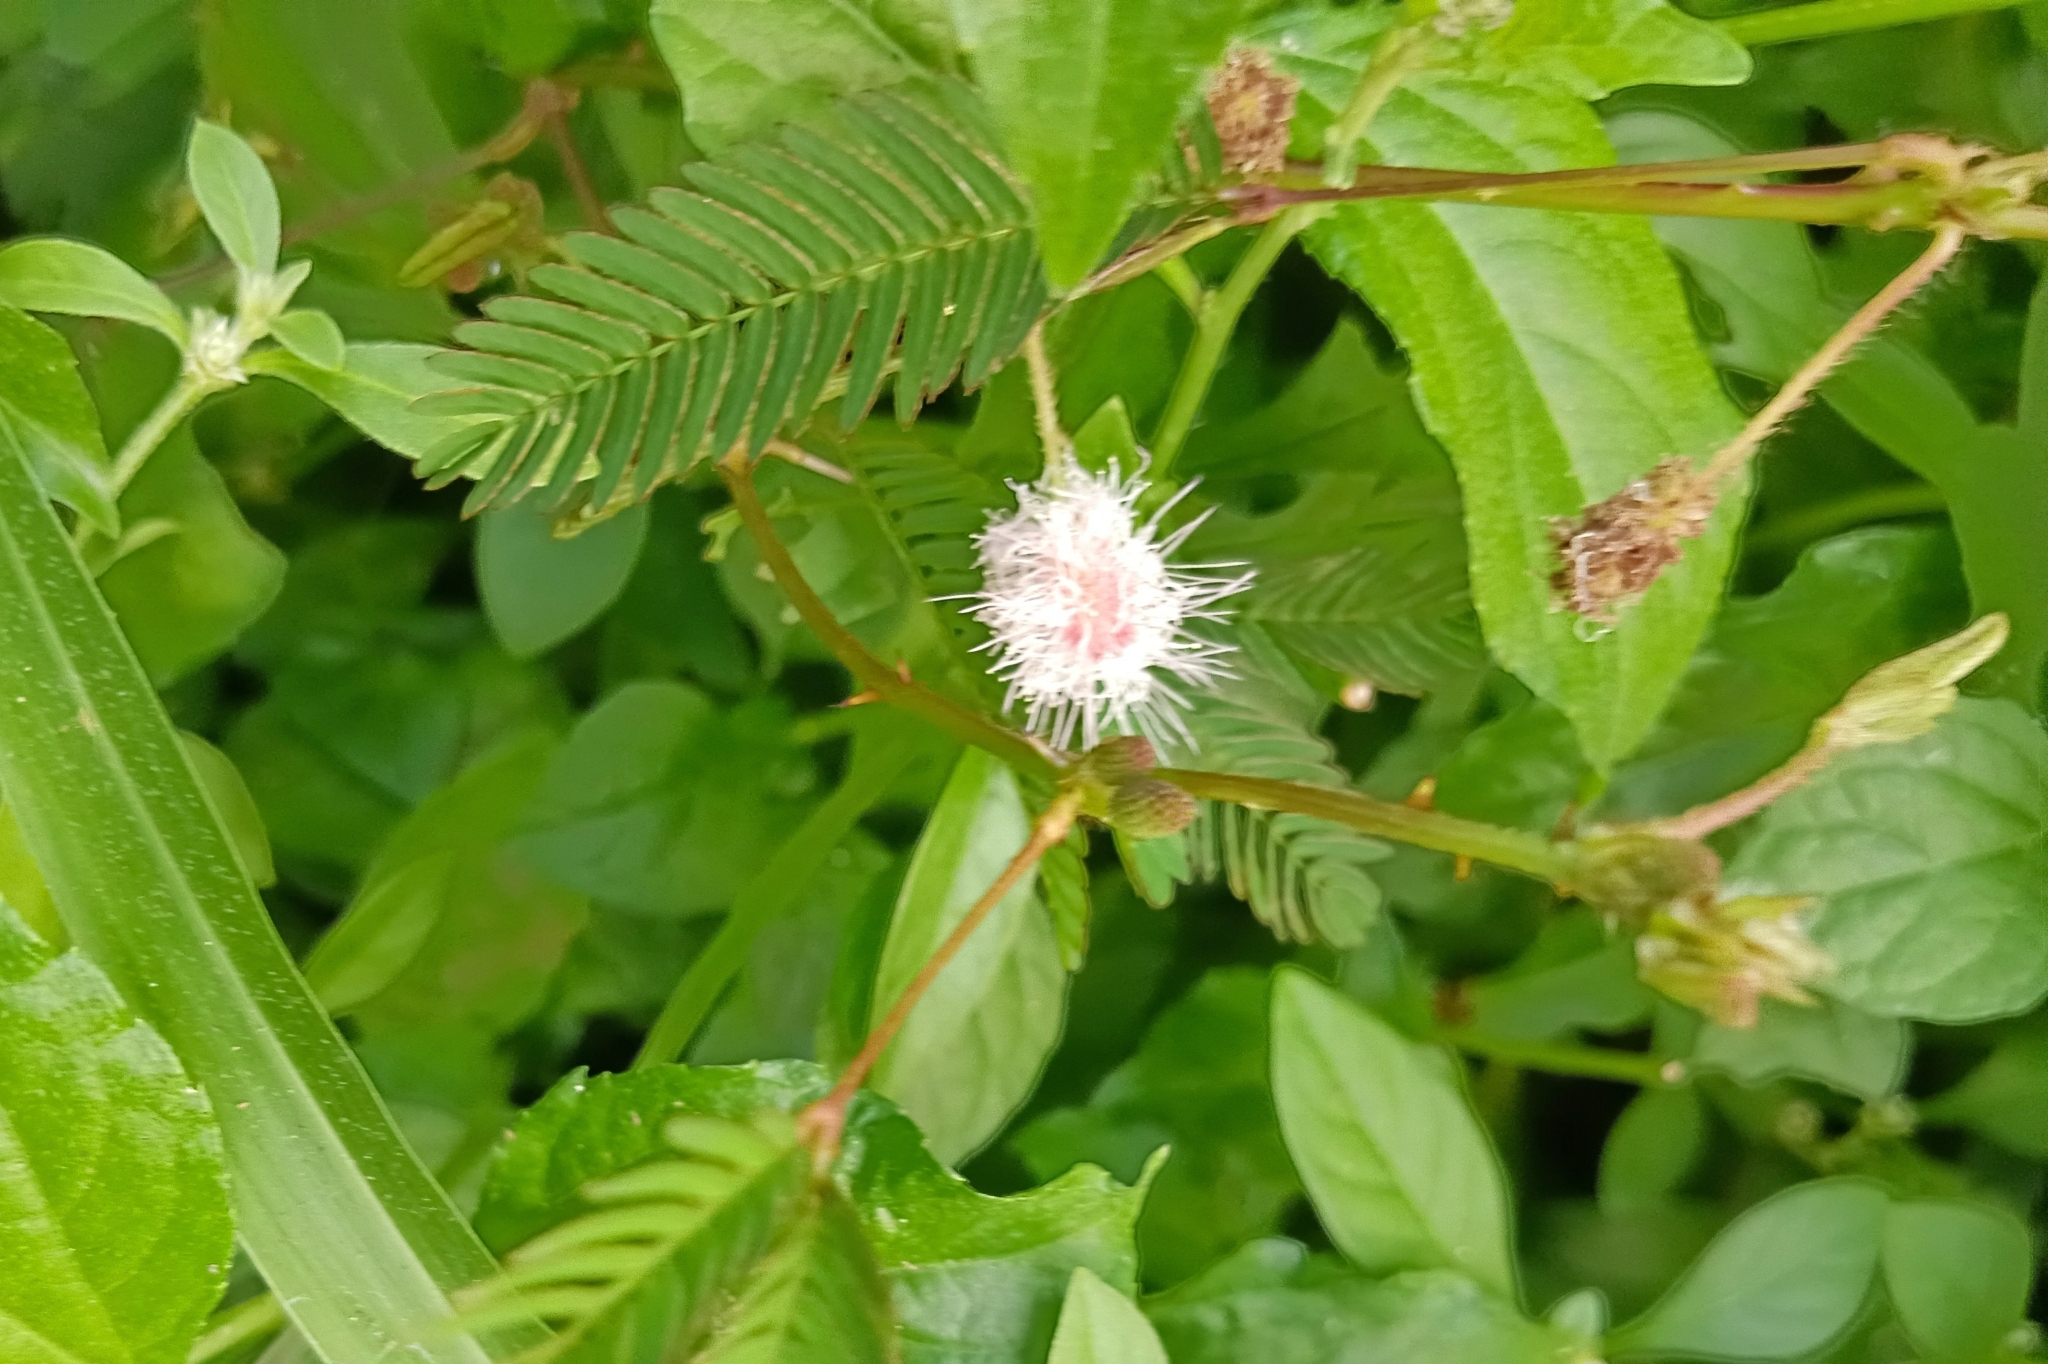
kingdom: Plantae
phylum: Tracheophyta
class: Magnoliopsida
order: Fabales
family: Fabaceae
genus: Mimosa
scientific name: Mimosa pudica
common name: Sensitive plant
